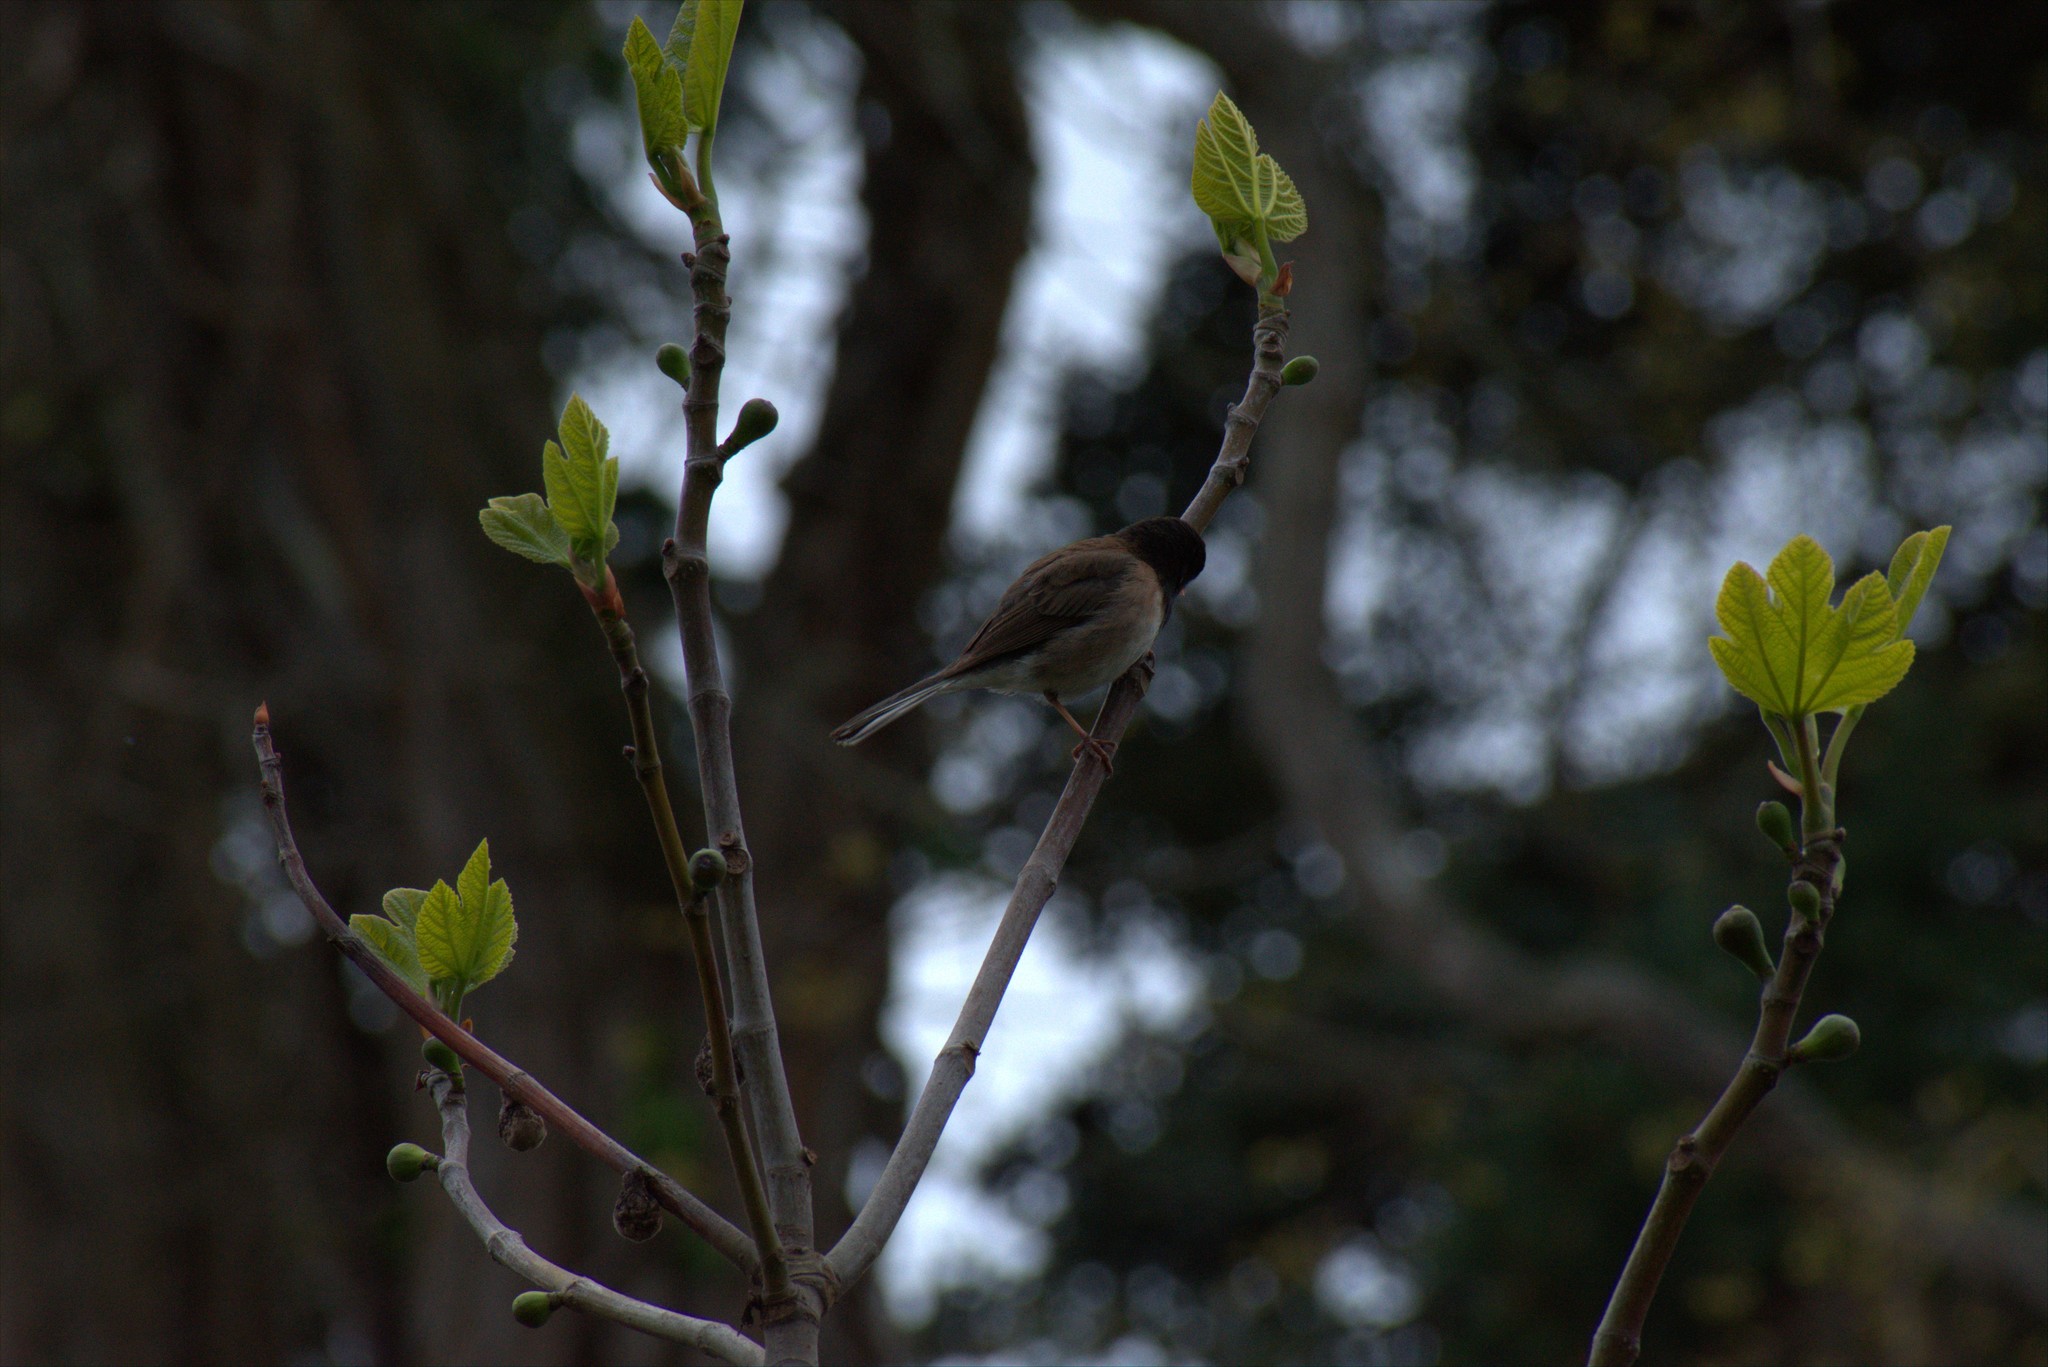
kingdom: Animalia
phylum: Chordata
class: Aves
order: Passeriformes
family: Passerellidae
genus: Junco
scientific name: Junco hyemalis
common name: Dark-eyed junco
